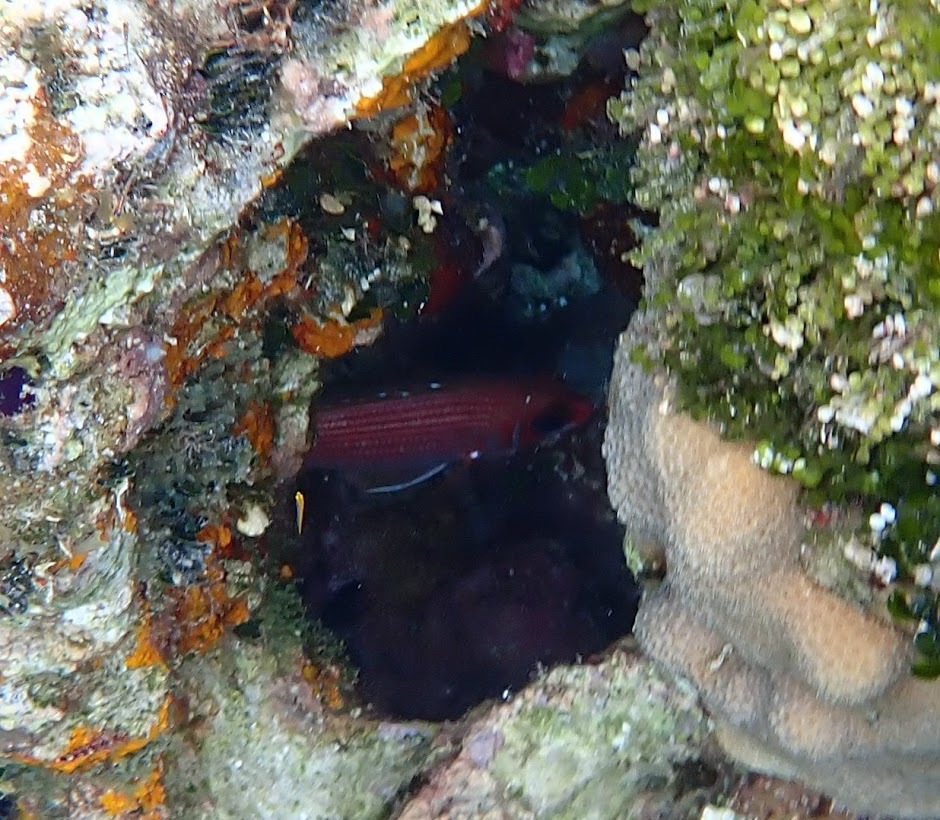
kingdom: Animalia
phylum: Chordata
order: Beryciformes
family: Holocentridae
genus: Holocentrus
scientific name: Holocentrus rufus
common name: Longspine squirrelfish
